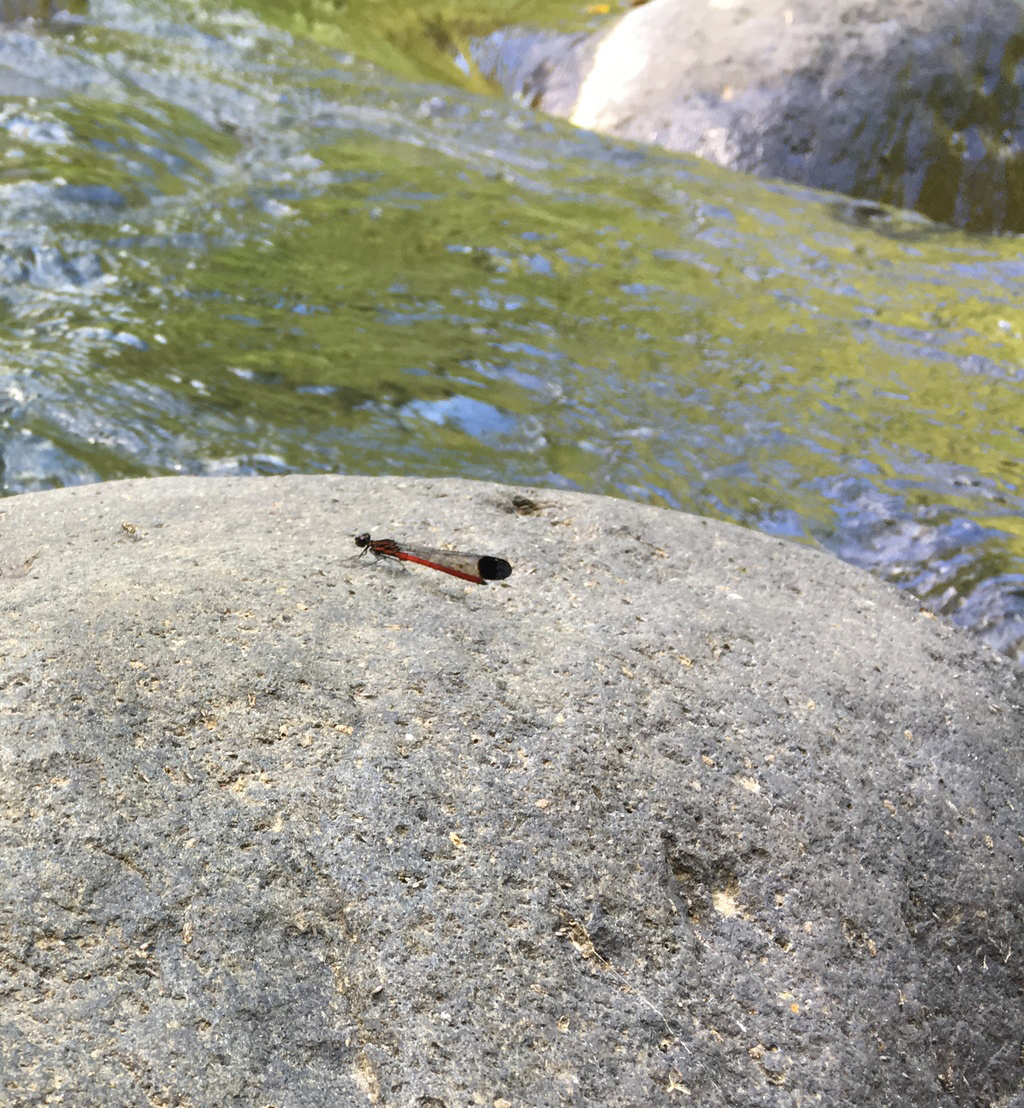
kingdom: Animalia
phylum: Arthropoda
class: Insecta
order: Odonata
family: Chlorocyphidae
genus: Rhinocypha
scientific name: Rhinocypha pagenstecheri
